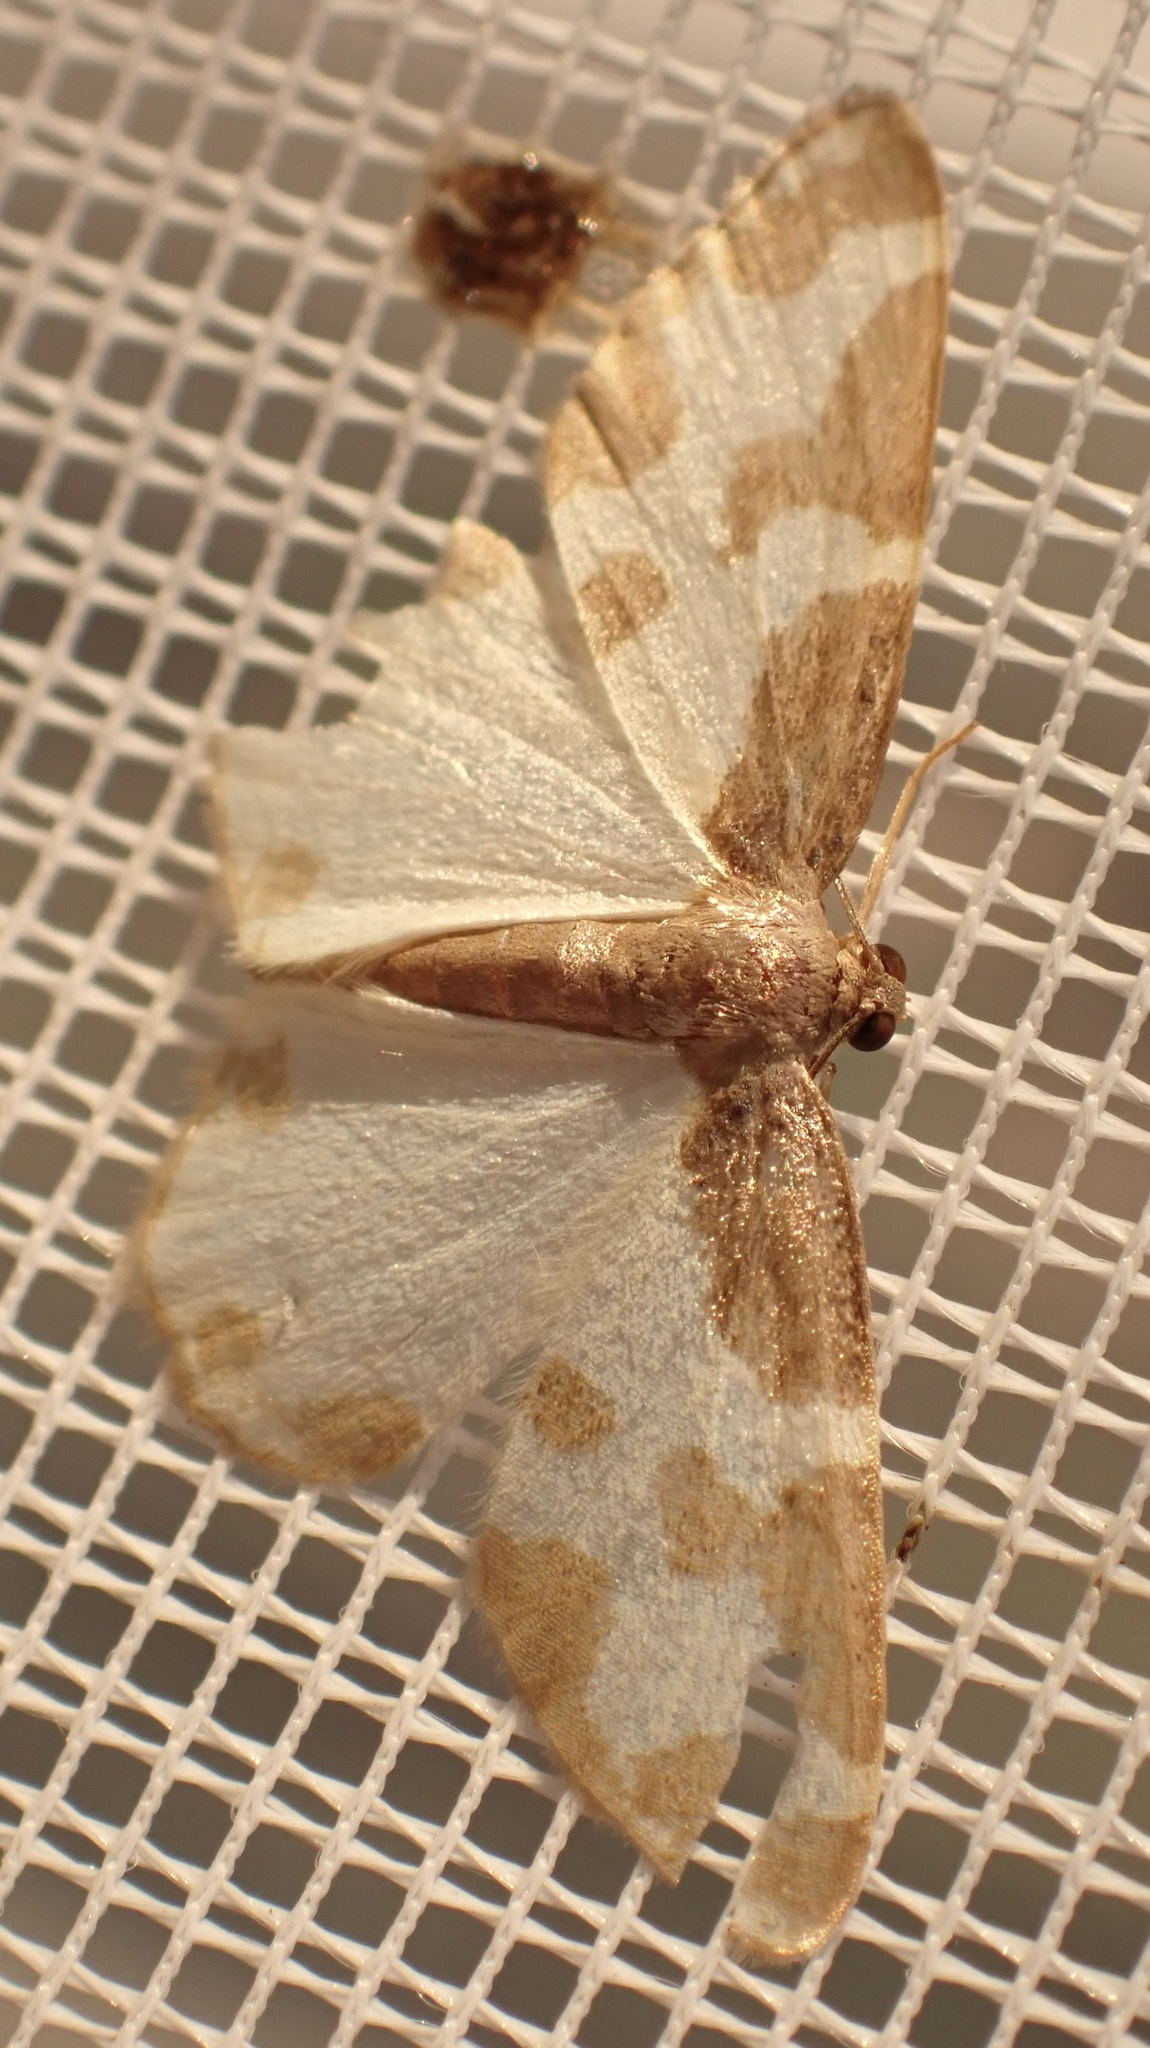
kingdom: Animalia
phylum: Arthropoda
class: Insecta
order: Lepidoptera
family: Geometridae
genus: Lomaspilis
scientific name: Lomaspilis marginata
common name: Clouded border
